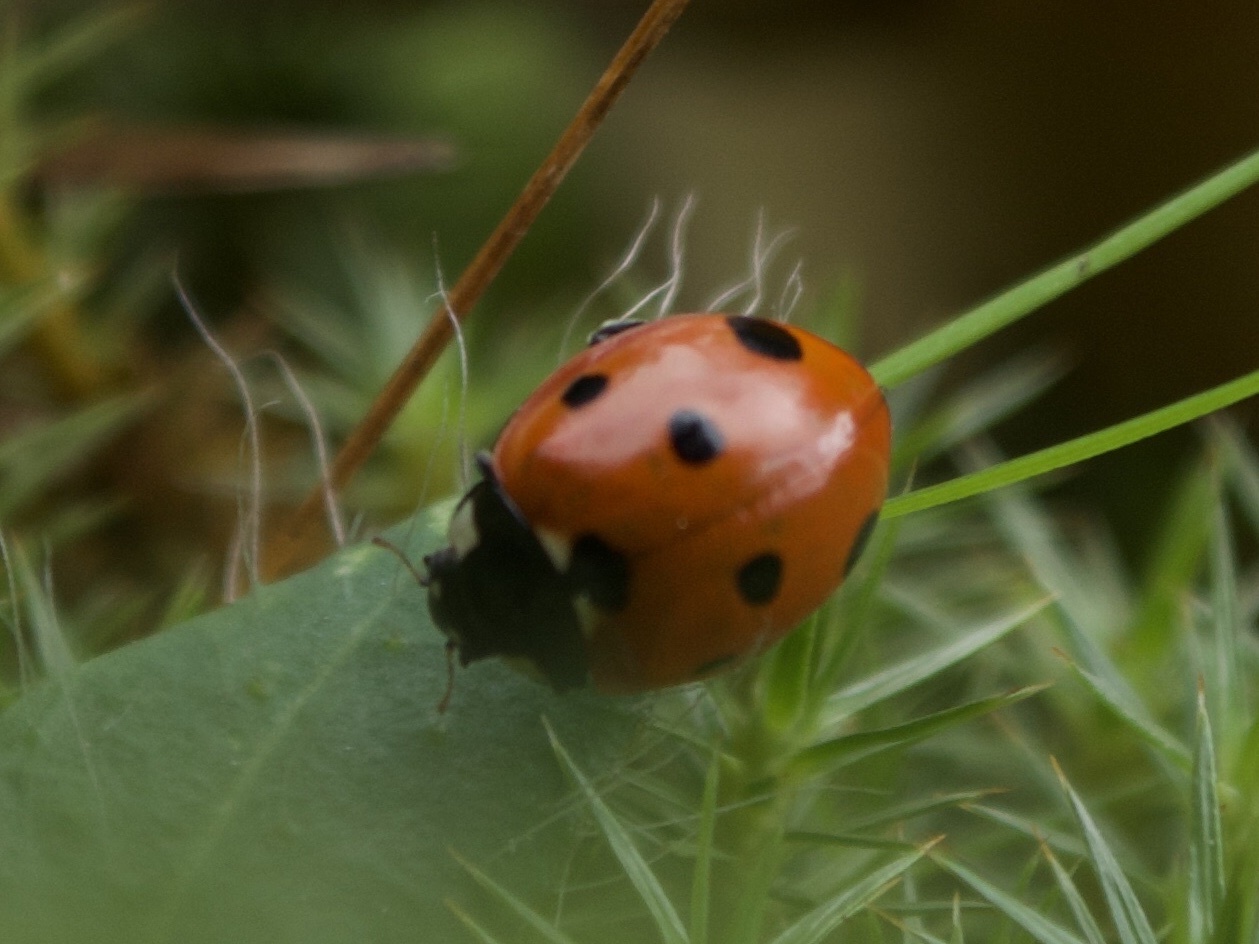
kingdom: Animalia
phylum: Arthropoda
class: Insecta
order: Coleoptera
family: Coccinellidae
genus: Coccinella
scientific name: Coccinella septempunctata
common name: Sevenspotted lady beetle
